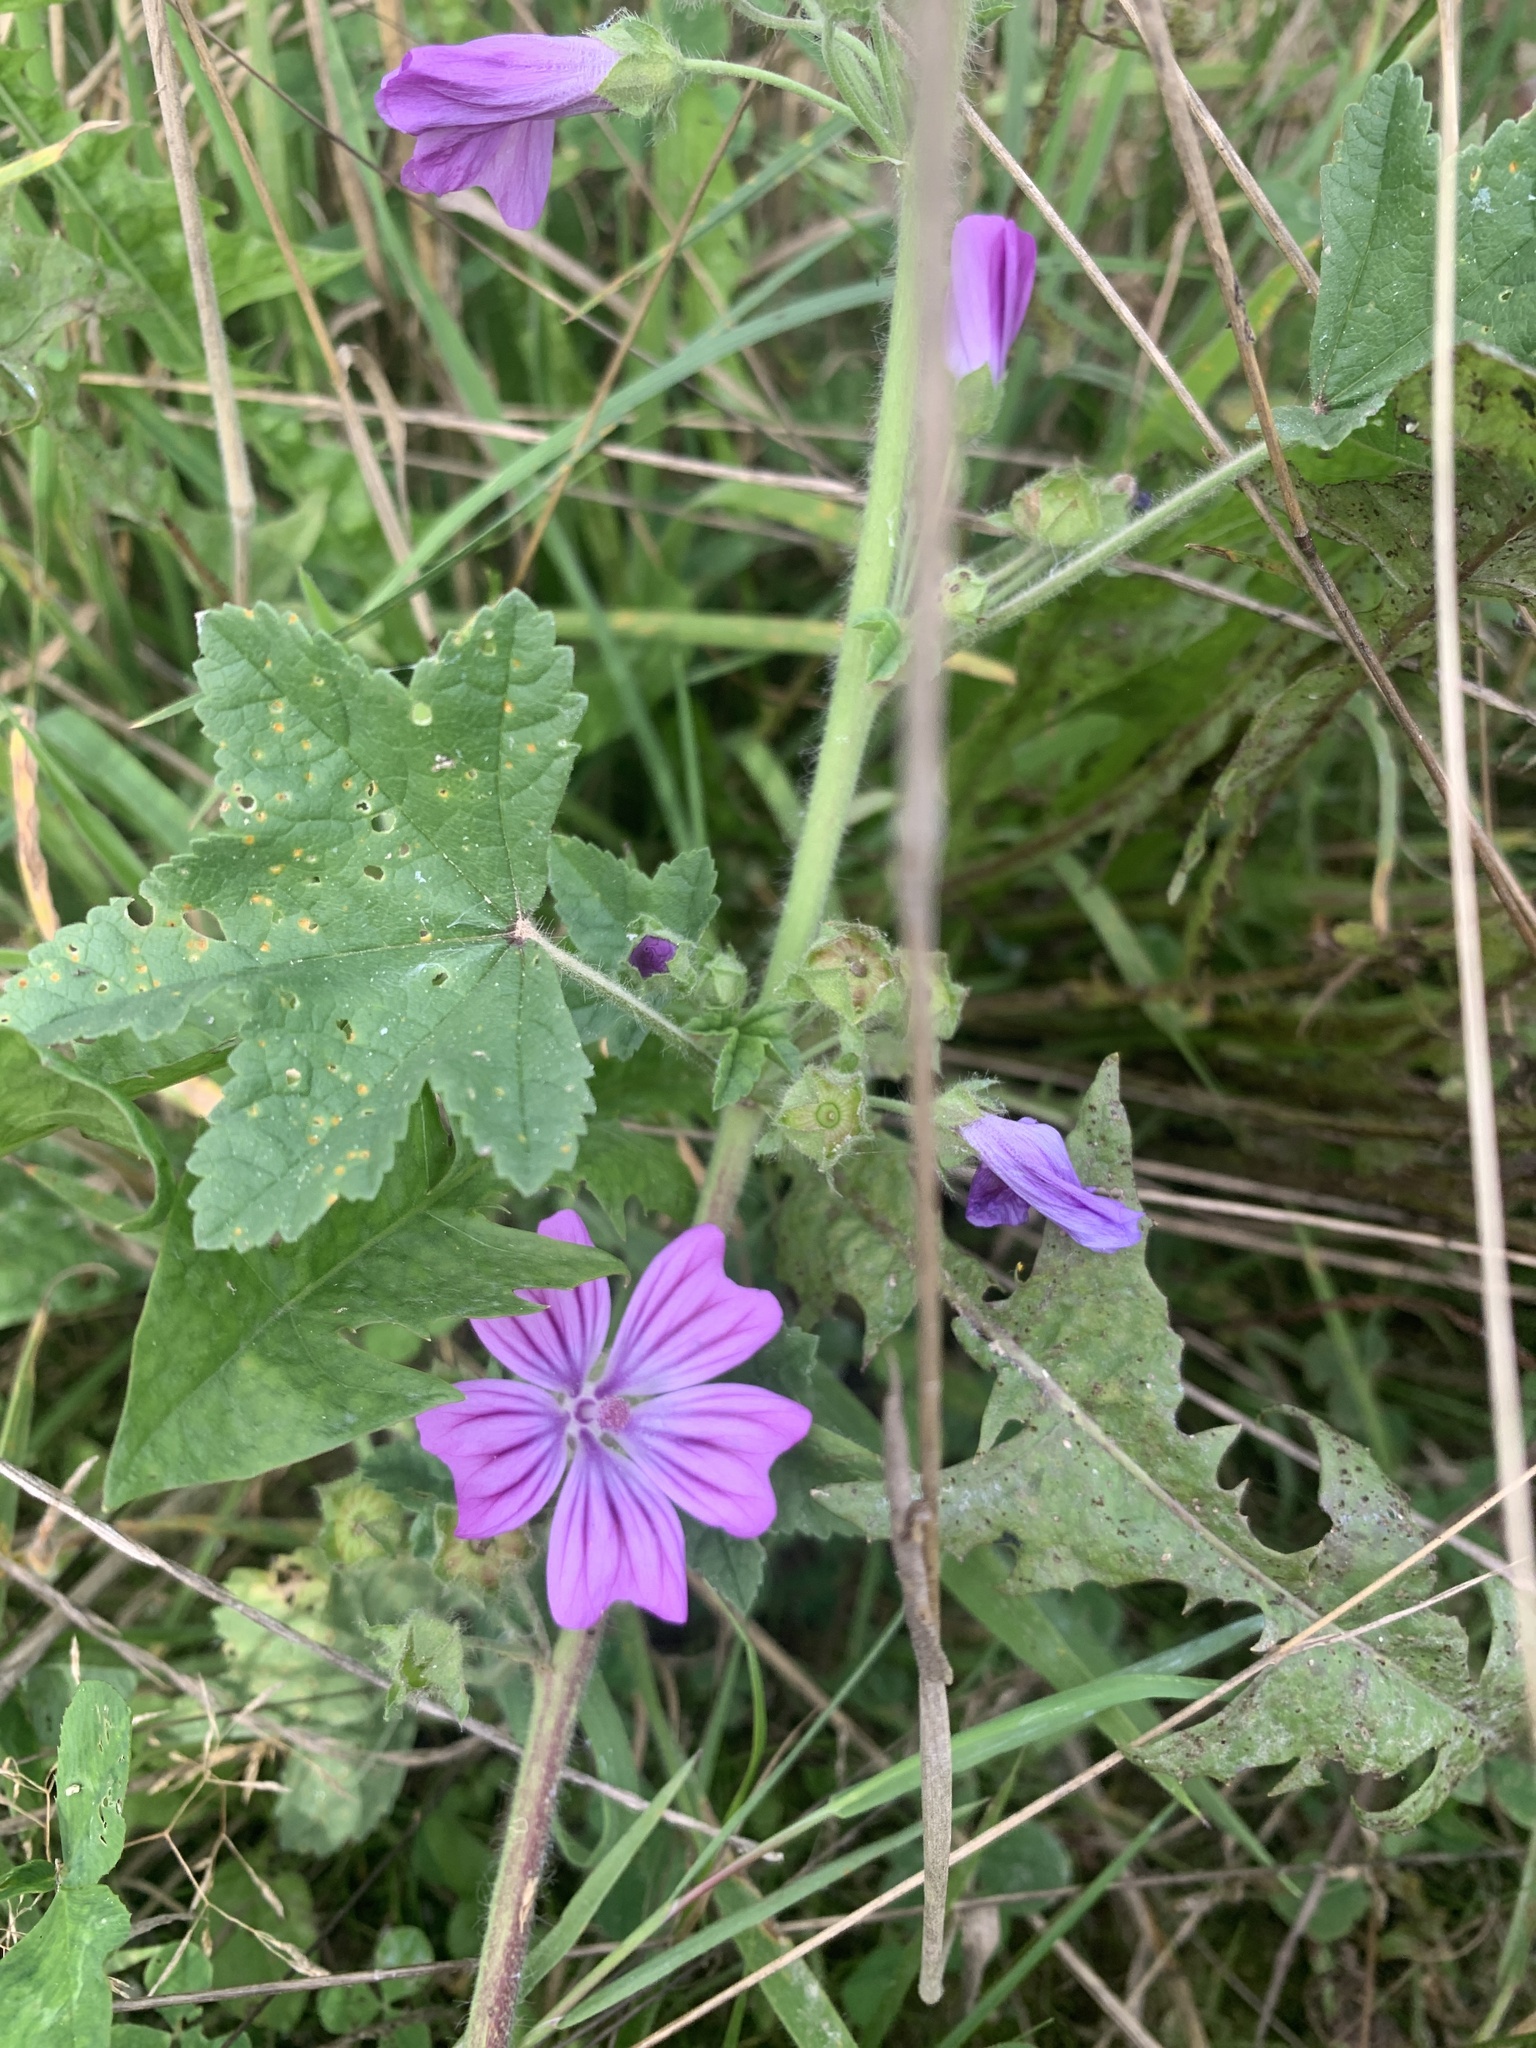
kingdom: Plantae
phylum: Tracheophyta
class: Magnoliopsida
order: Malvales
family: Malvaceae
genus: Malva
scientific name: Malva sylvestris
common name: Common mallow
